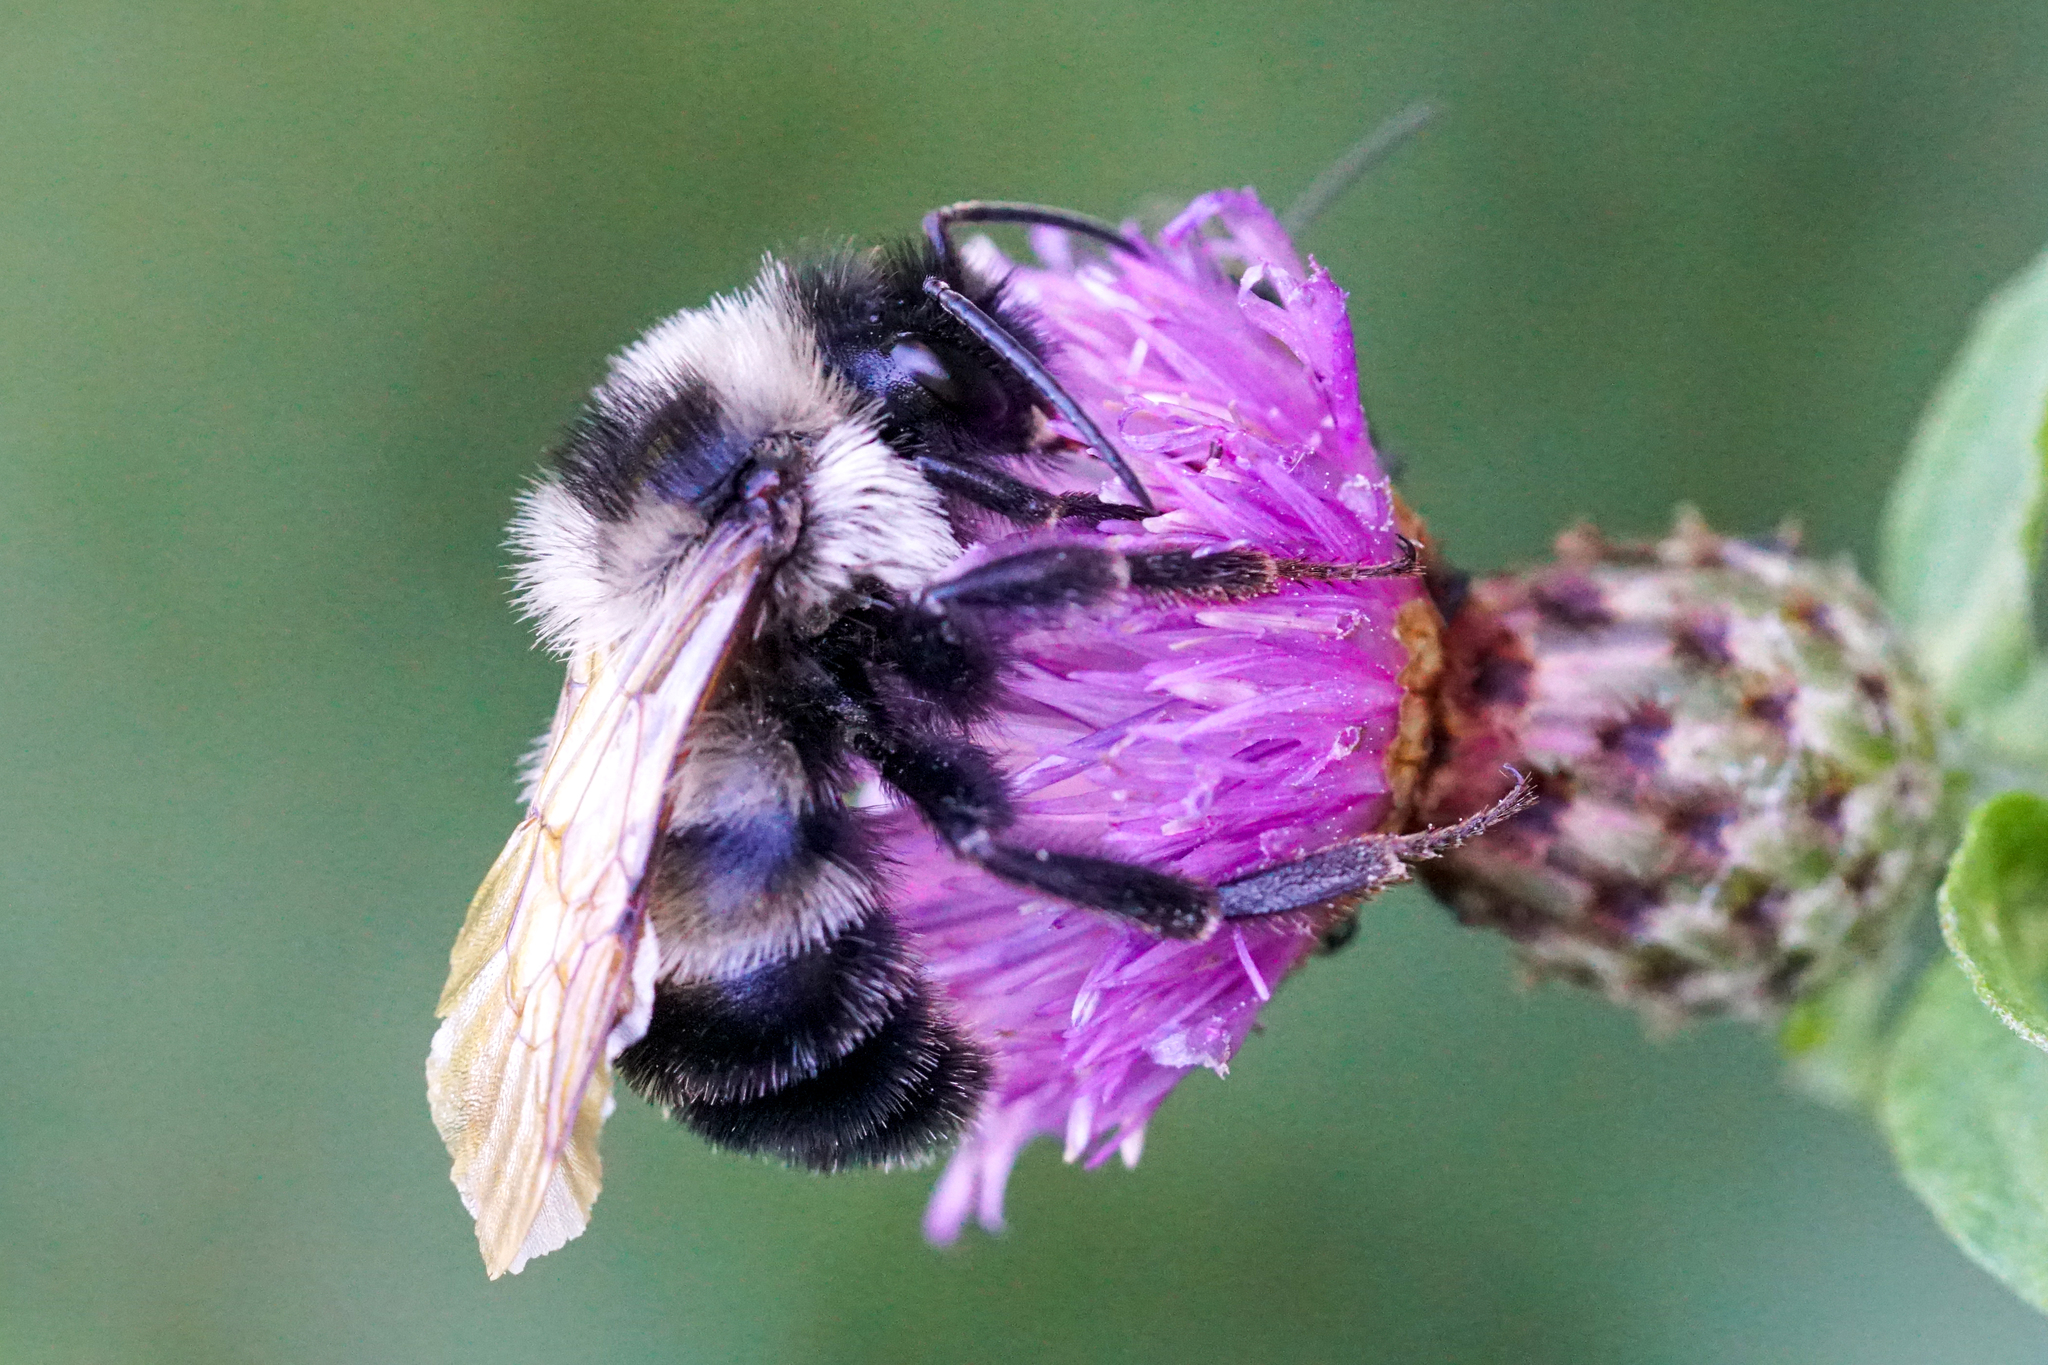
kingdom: Animalia
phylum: Arthropoda
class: Insecta
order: Hymenoptera
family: Apidae
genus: Bombus
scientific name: Bombus citrinus
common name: Lemon cuckoo bumble bee
